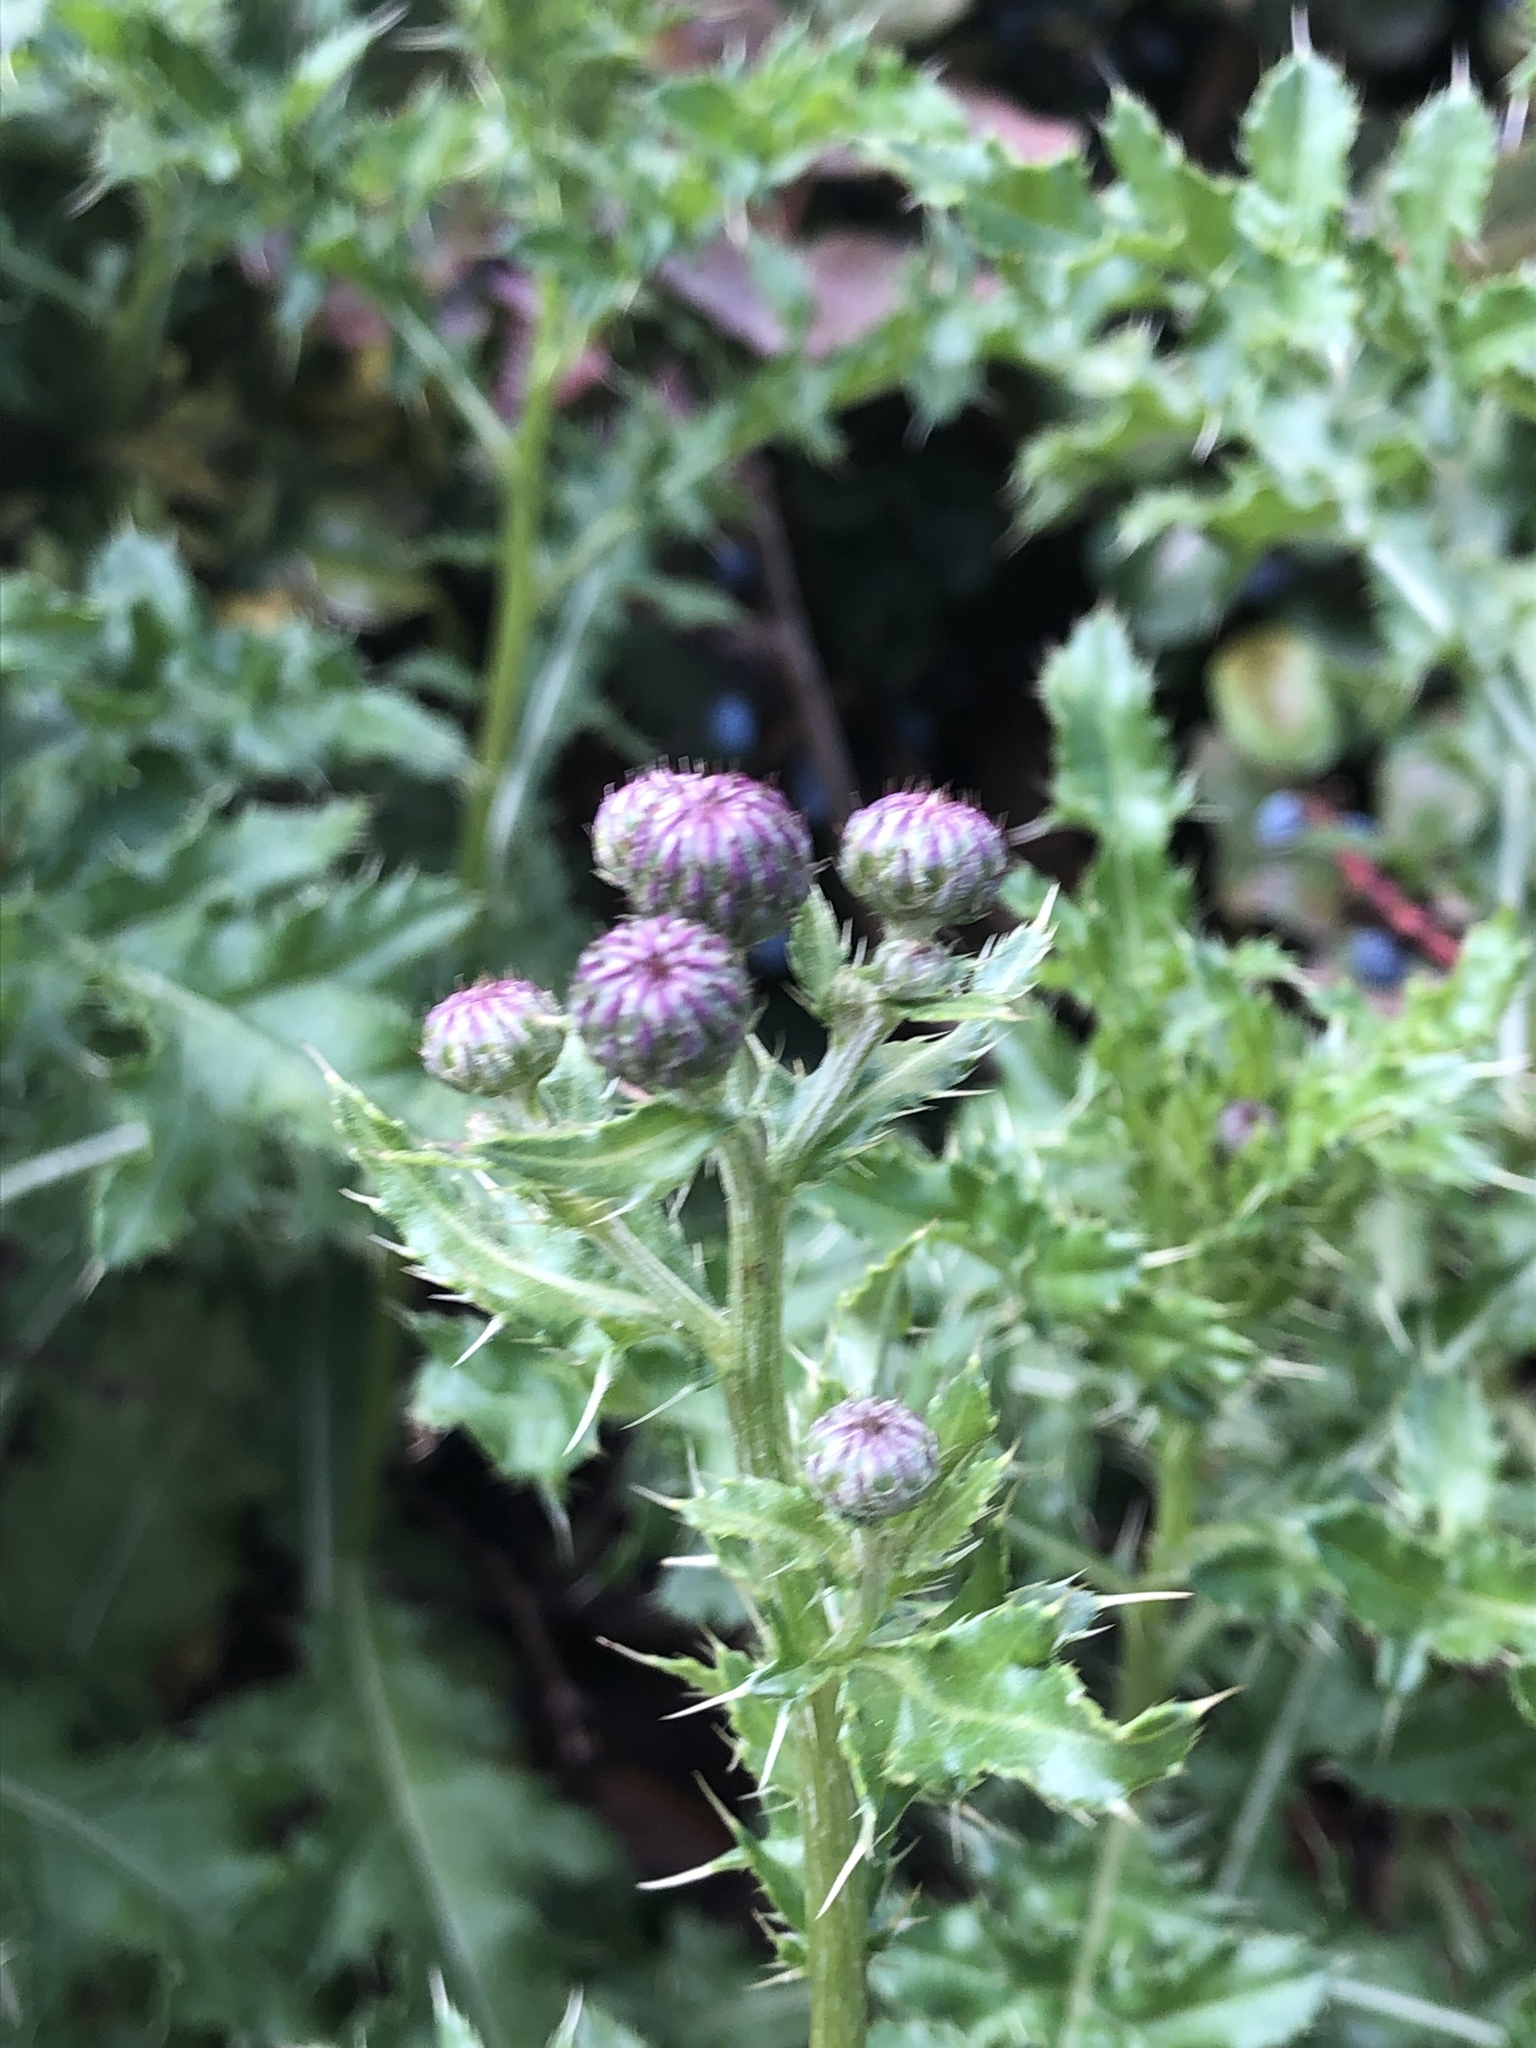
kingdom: Plantae
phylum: Tracheophyta
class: Magnoliopsida
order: Asterales
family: Asteraceae
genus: Cirsium
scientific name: Cirsium arvense
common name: Creeping thistle
